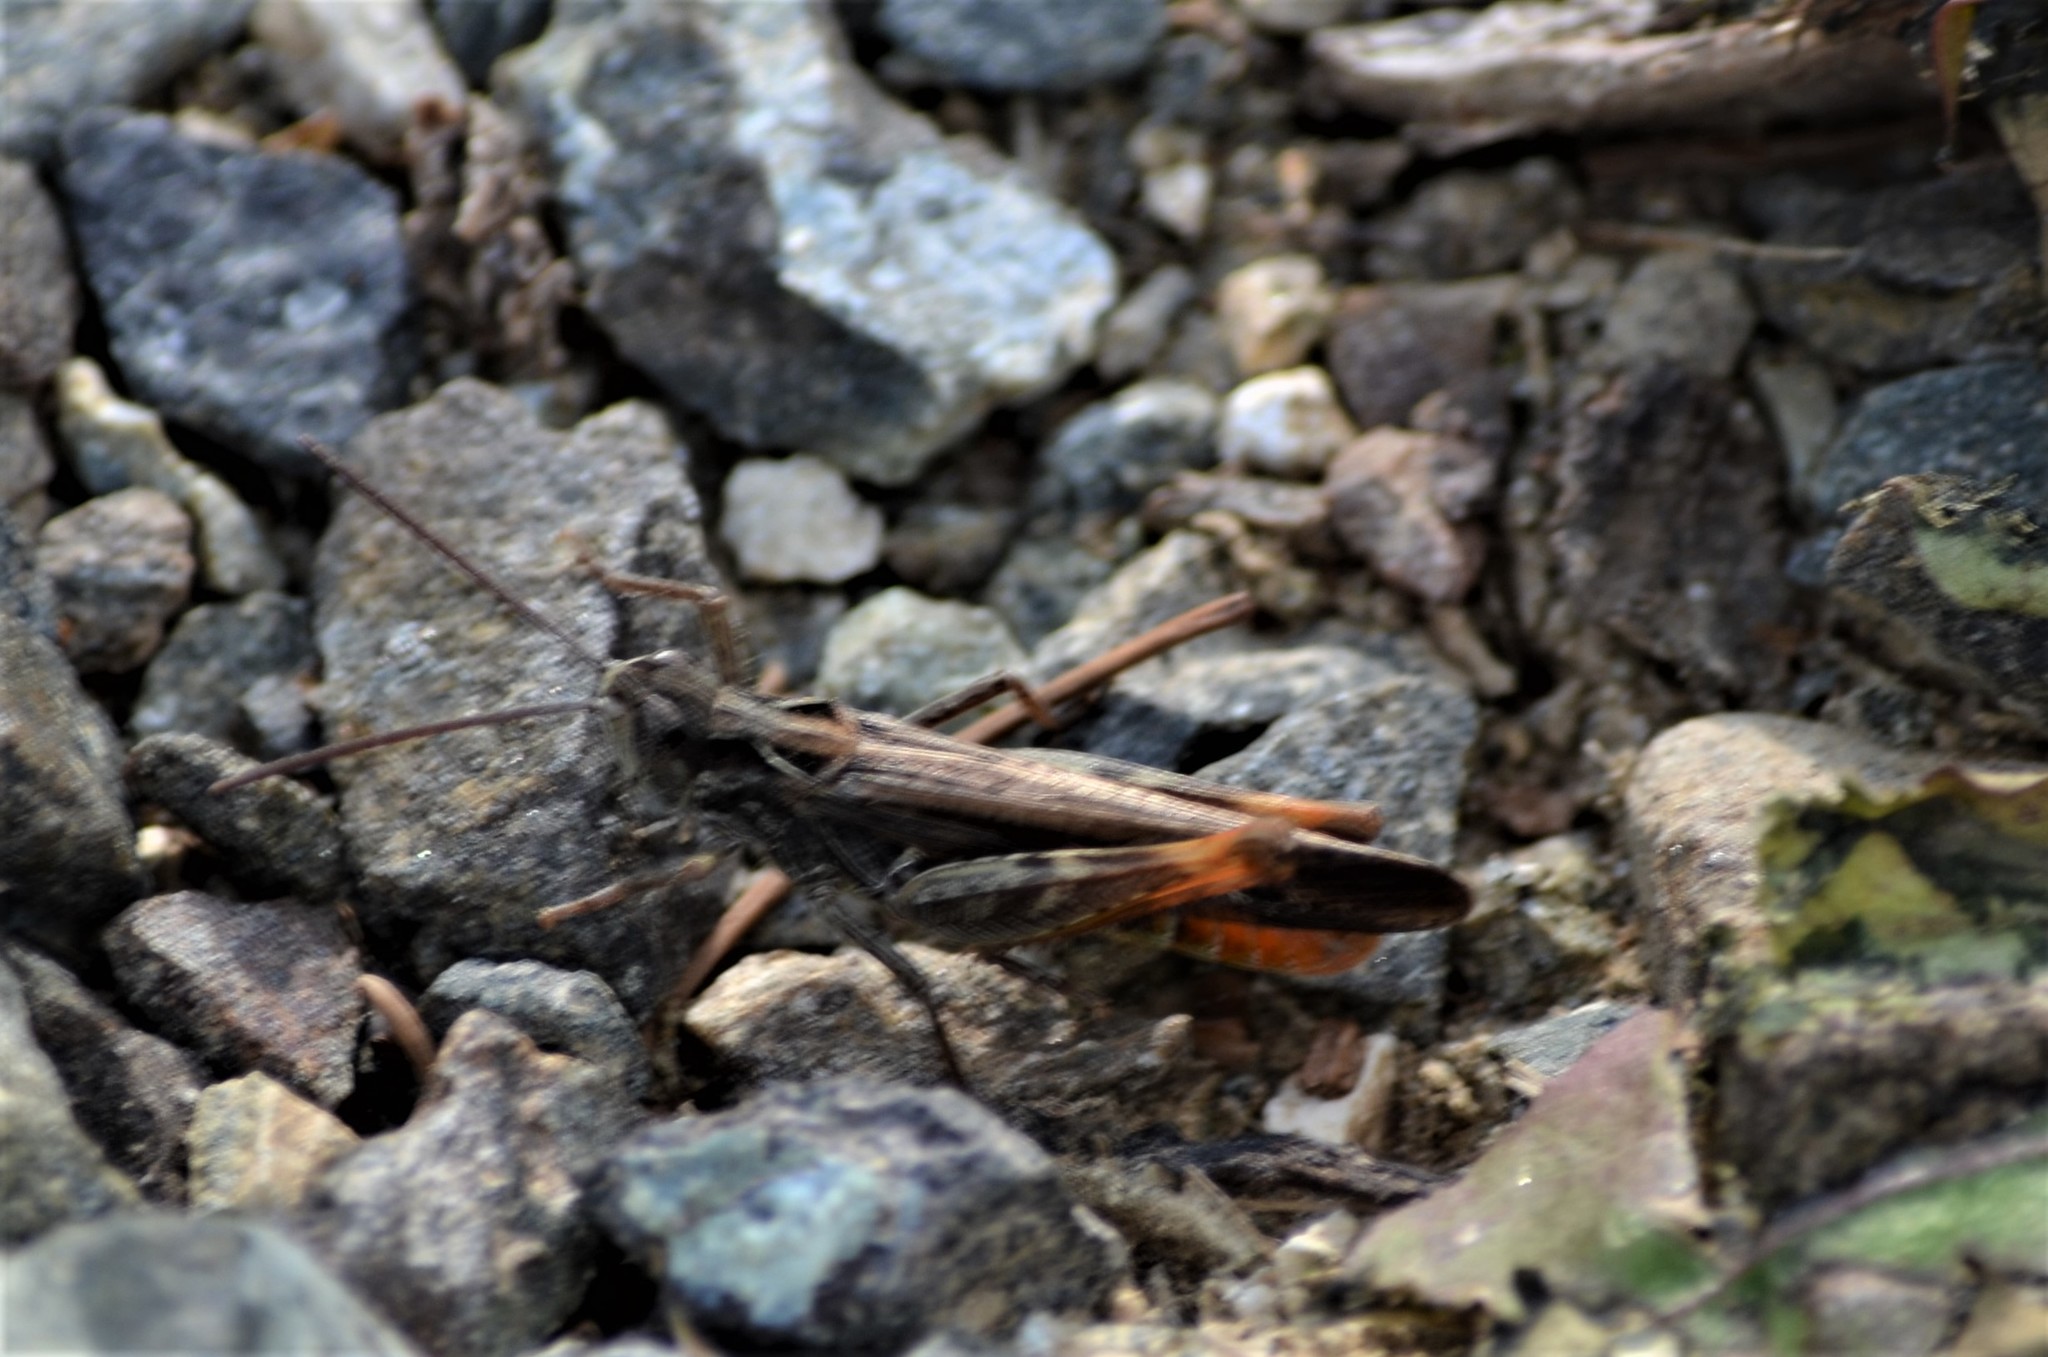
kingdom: Animalia
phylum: Arthropoda
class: Insecta
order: Orthoptera
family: Acrididae
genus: Chorthippus
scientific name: Chorthippus brunneus
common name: Field grasshopper
